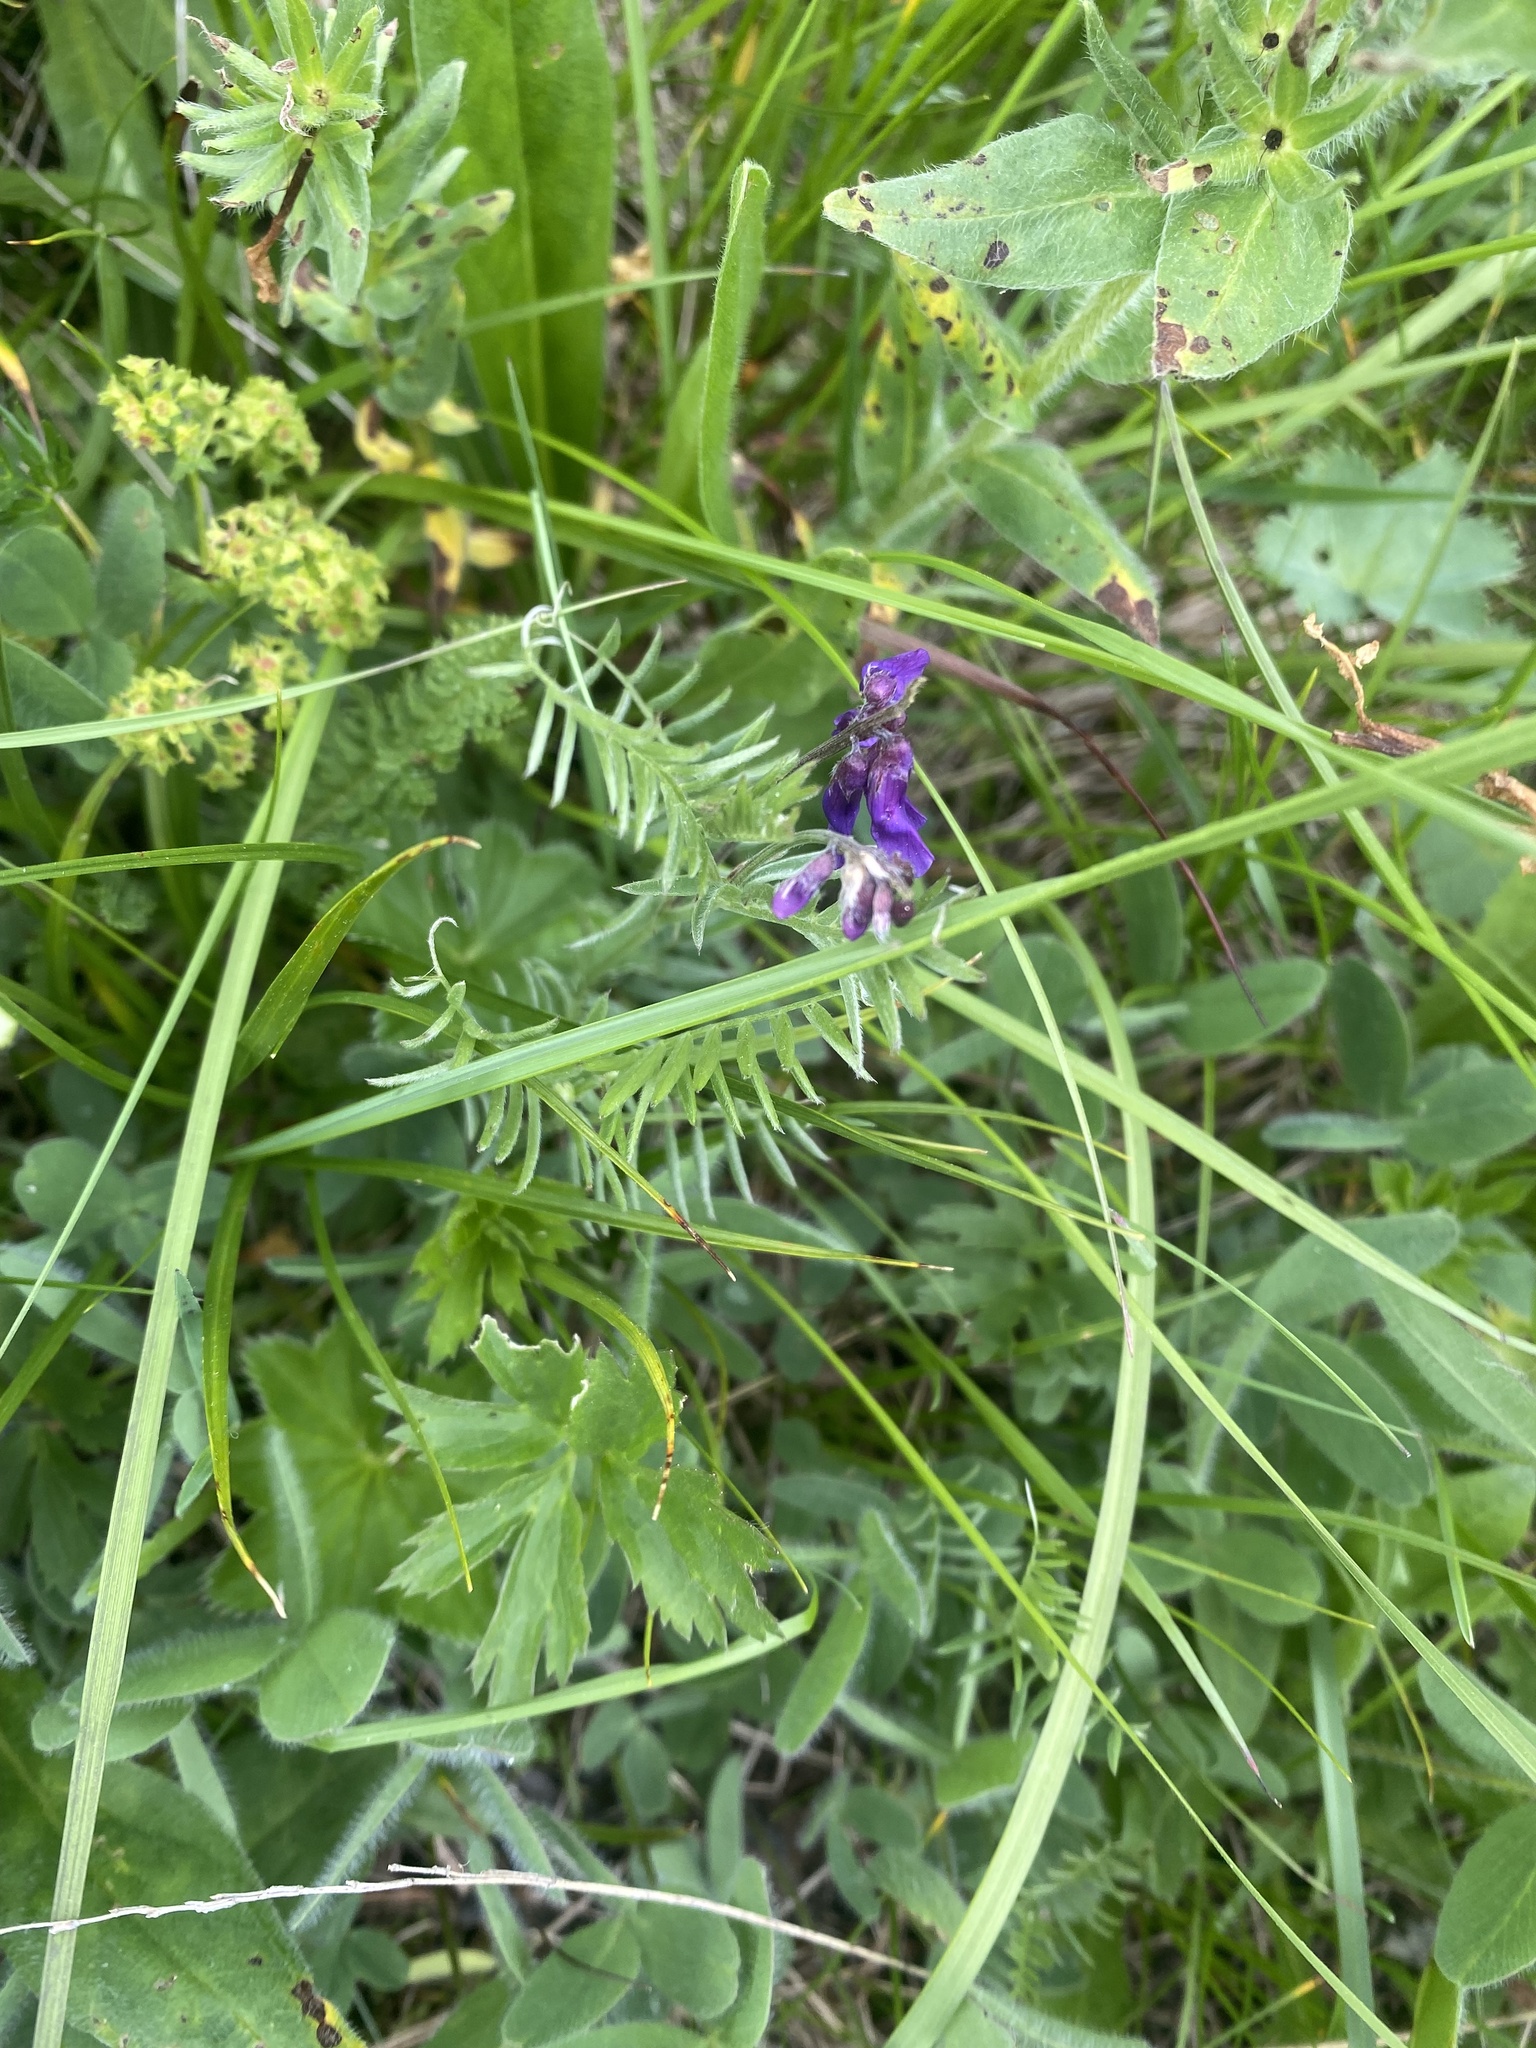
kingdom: Plantae
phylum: Tracheophyta
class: Magnoliopsida
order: Fabales
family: Fabaceae
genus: Vicia
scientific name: Vicia cracca
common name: Bird vetch
